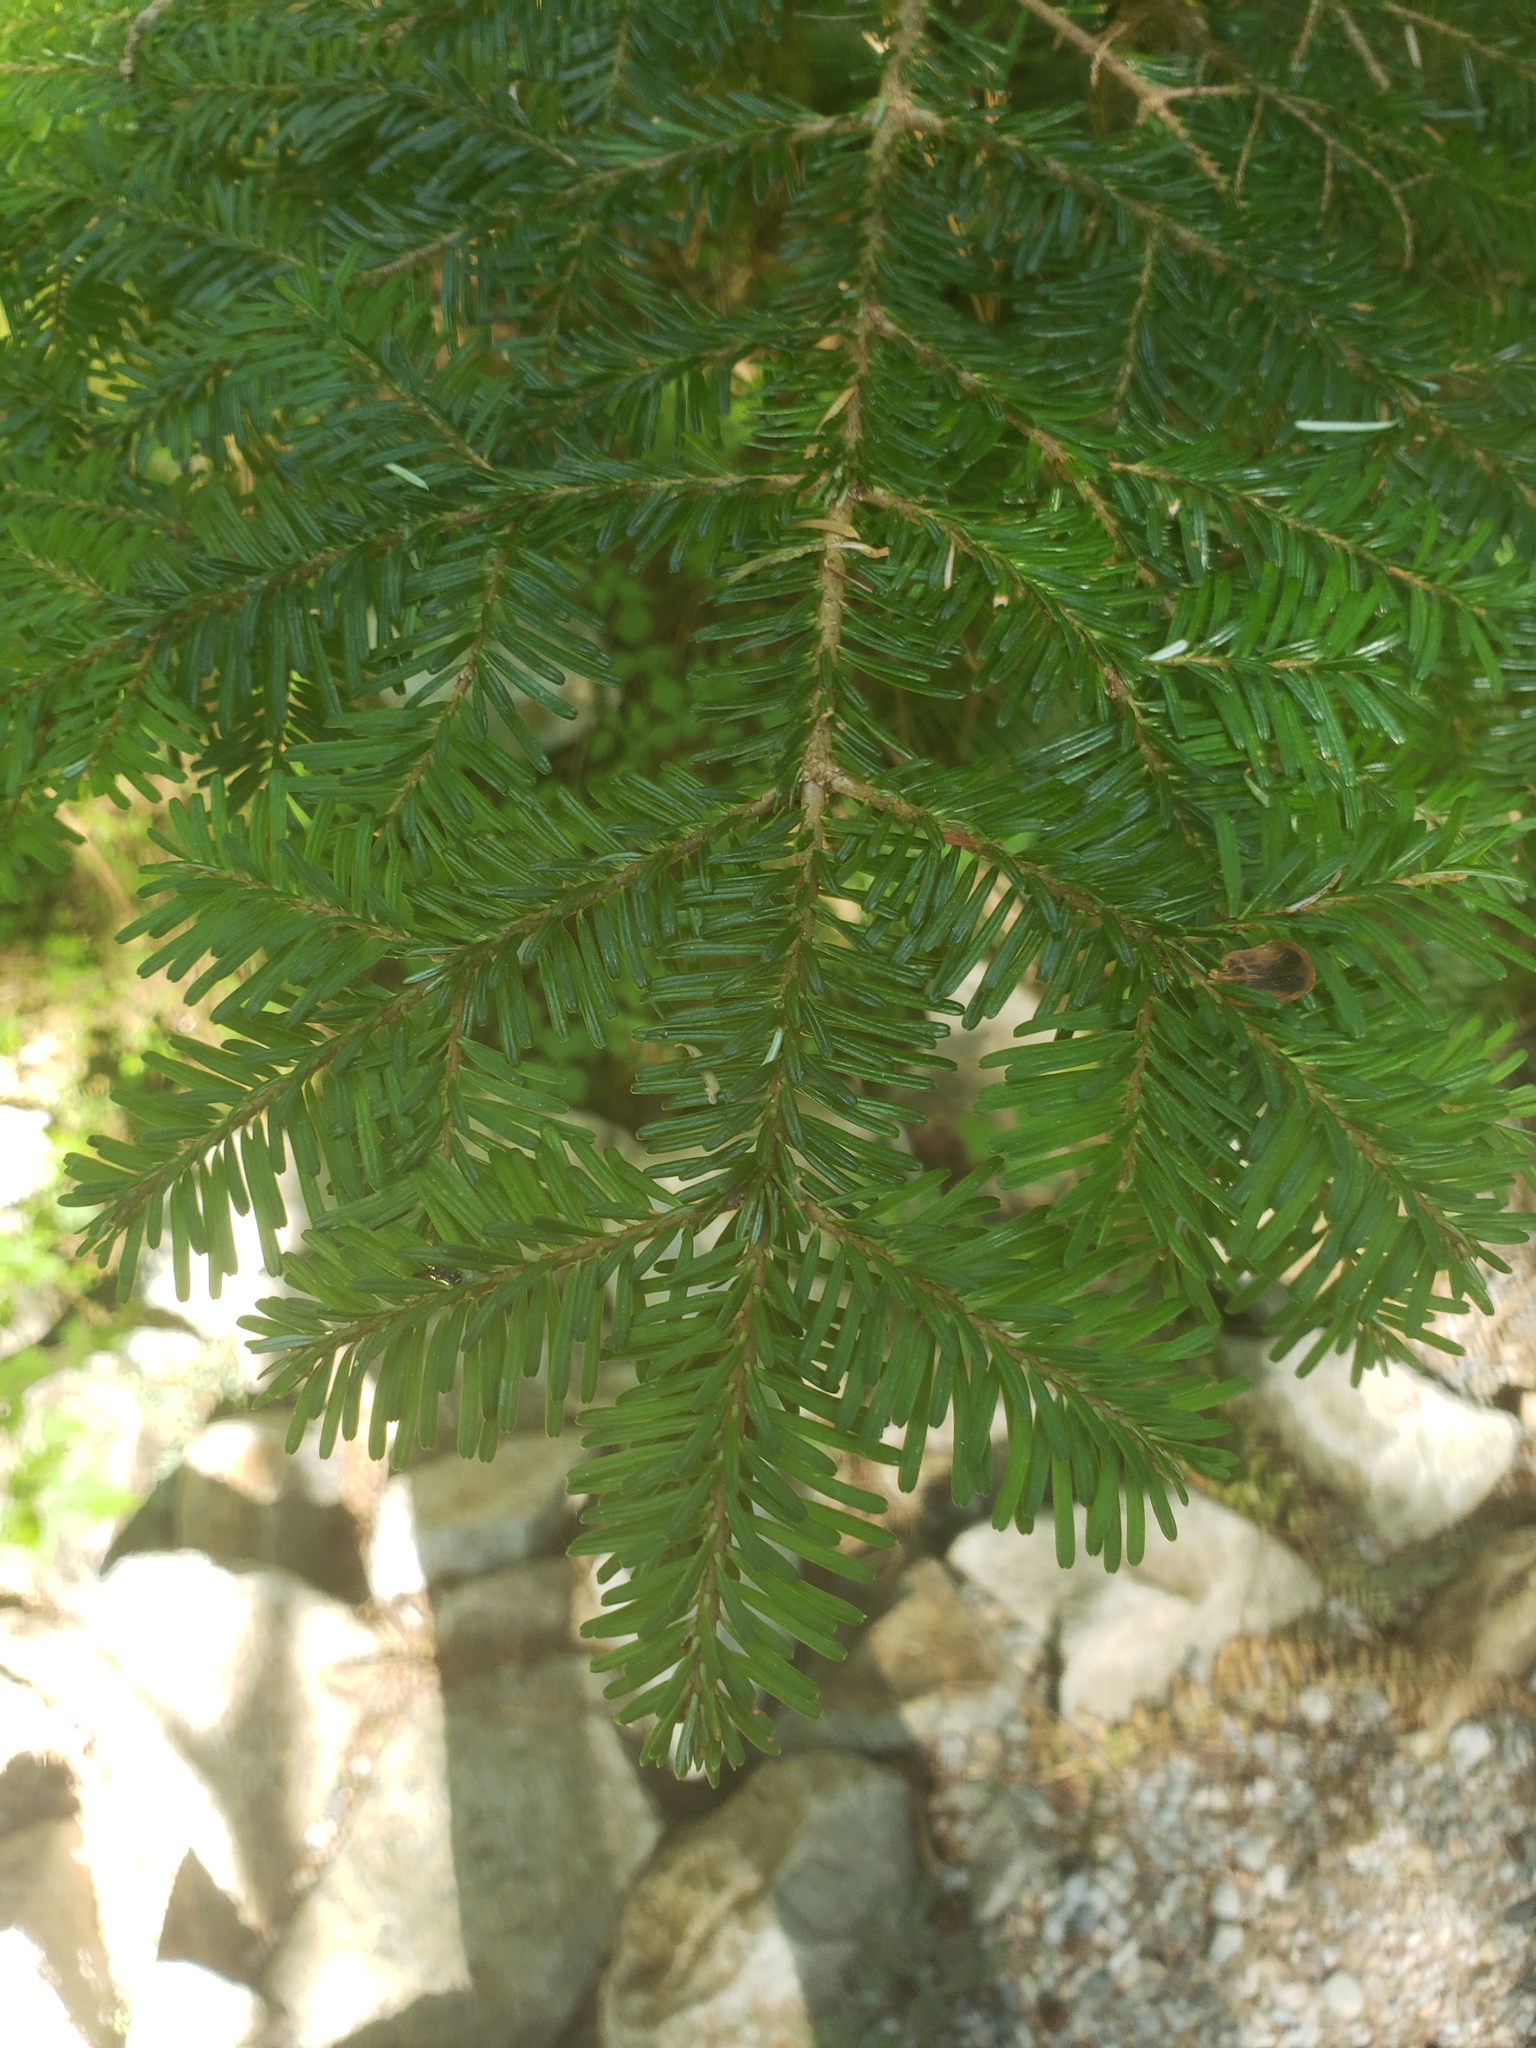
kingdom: Plantae
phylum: Tracheophyta
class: Pinopsida
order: Pinales
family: Pinaceae
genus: Abies
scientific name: Abies amabilis
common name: Pacific silver fir
